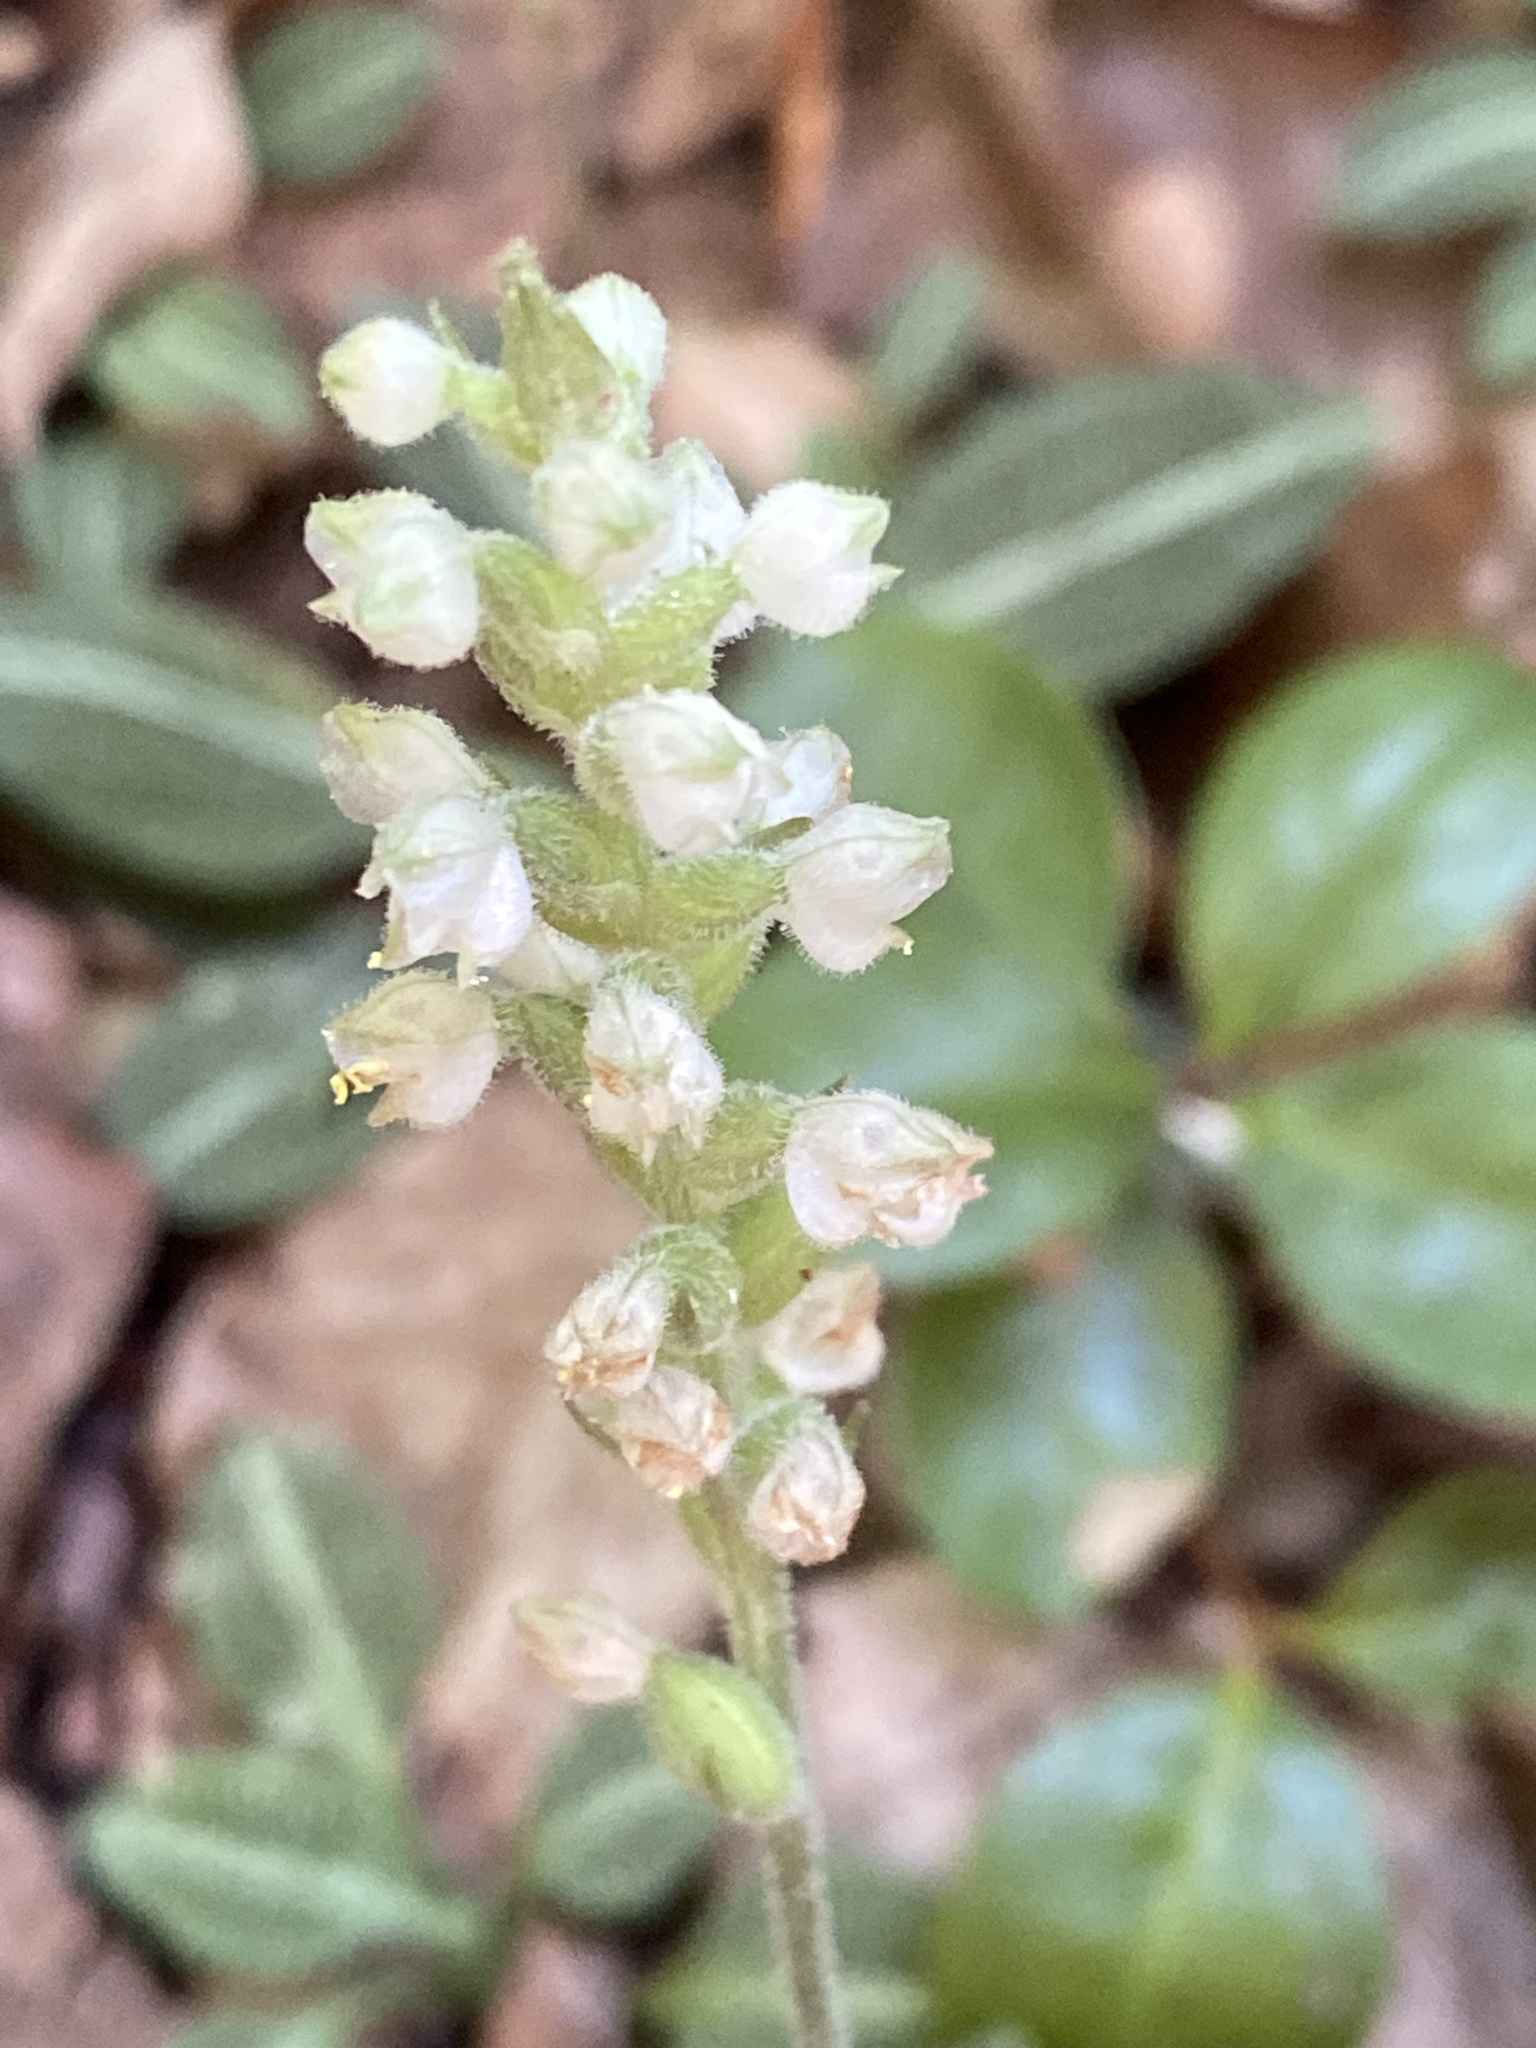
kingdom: Plantae
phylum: Tracheophyta
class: Liliopsida
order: Asparagales
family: Orchidaceae
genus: Goodyera
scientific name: Goodyera pubescens
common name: Downy rattlesnake-plantain
